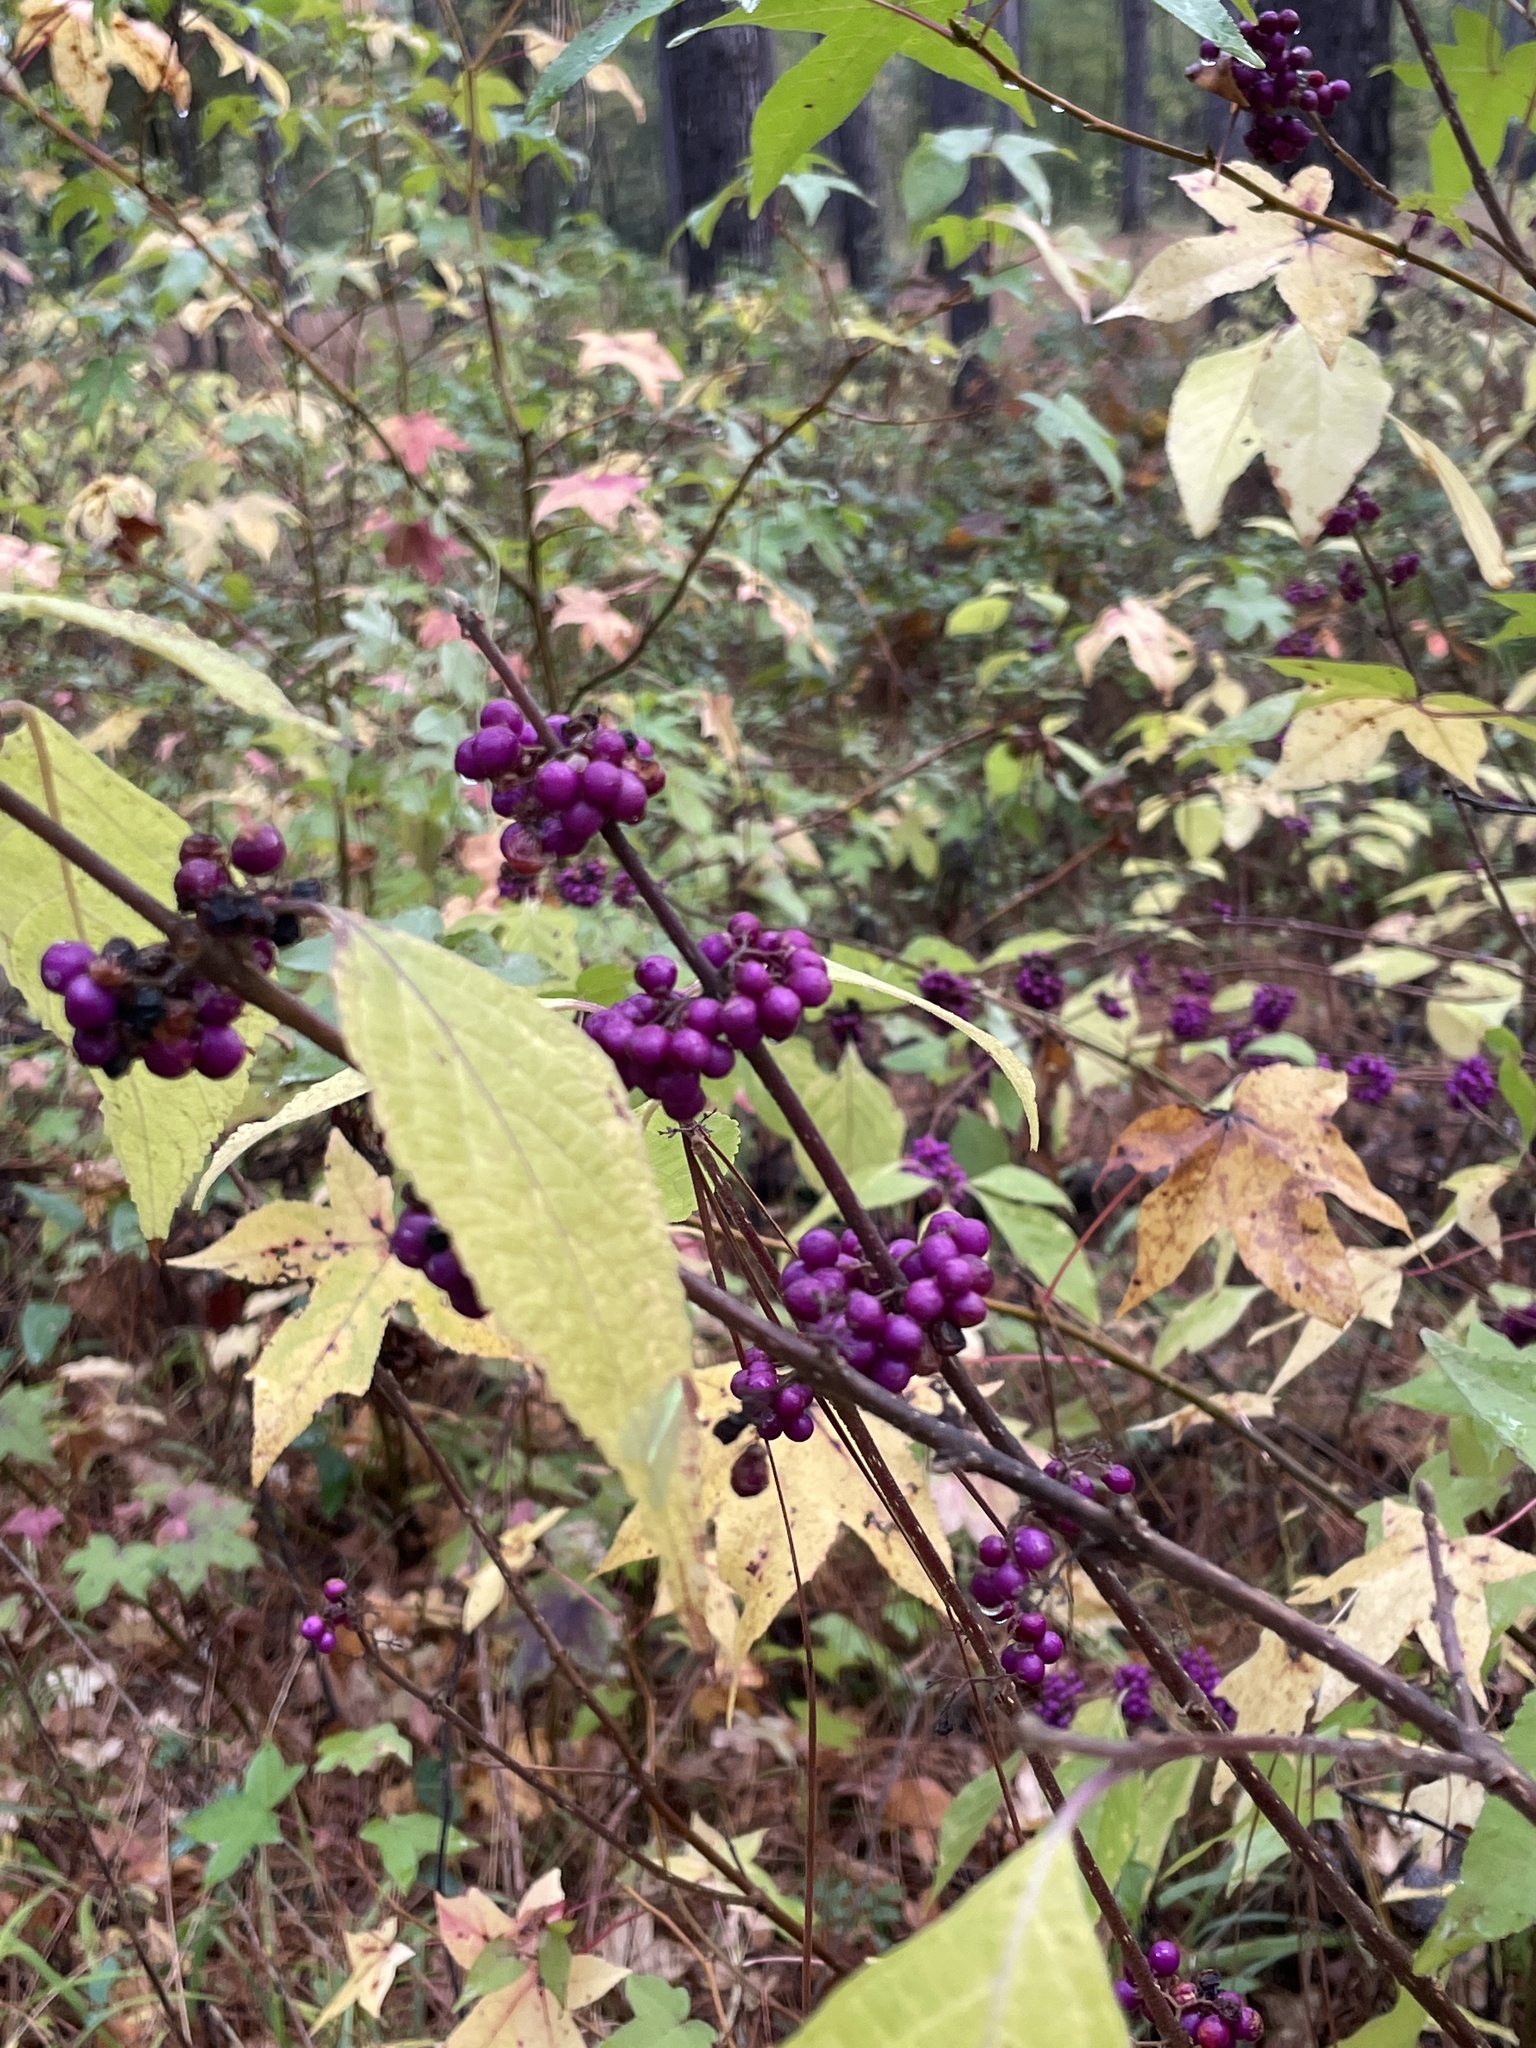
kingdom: Plantae
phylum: Tracheophyta
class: Magnoliopsida
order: Lamiales
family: Lamiaceae
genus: Callicarpa
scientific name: Callicarpa americana
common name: American beautyberry
